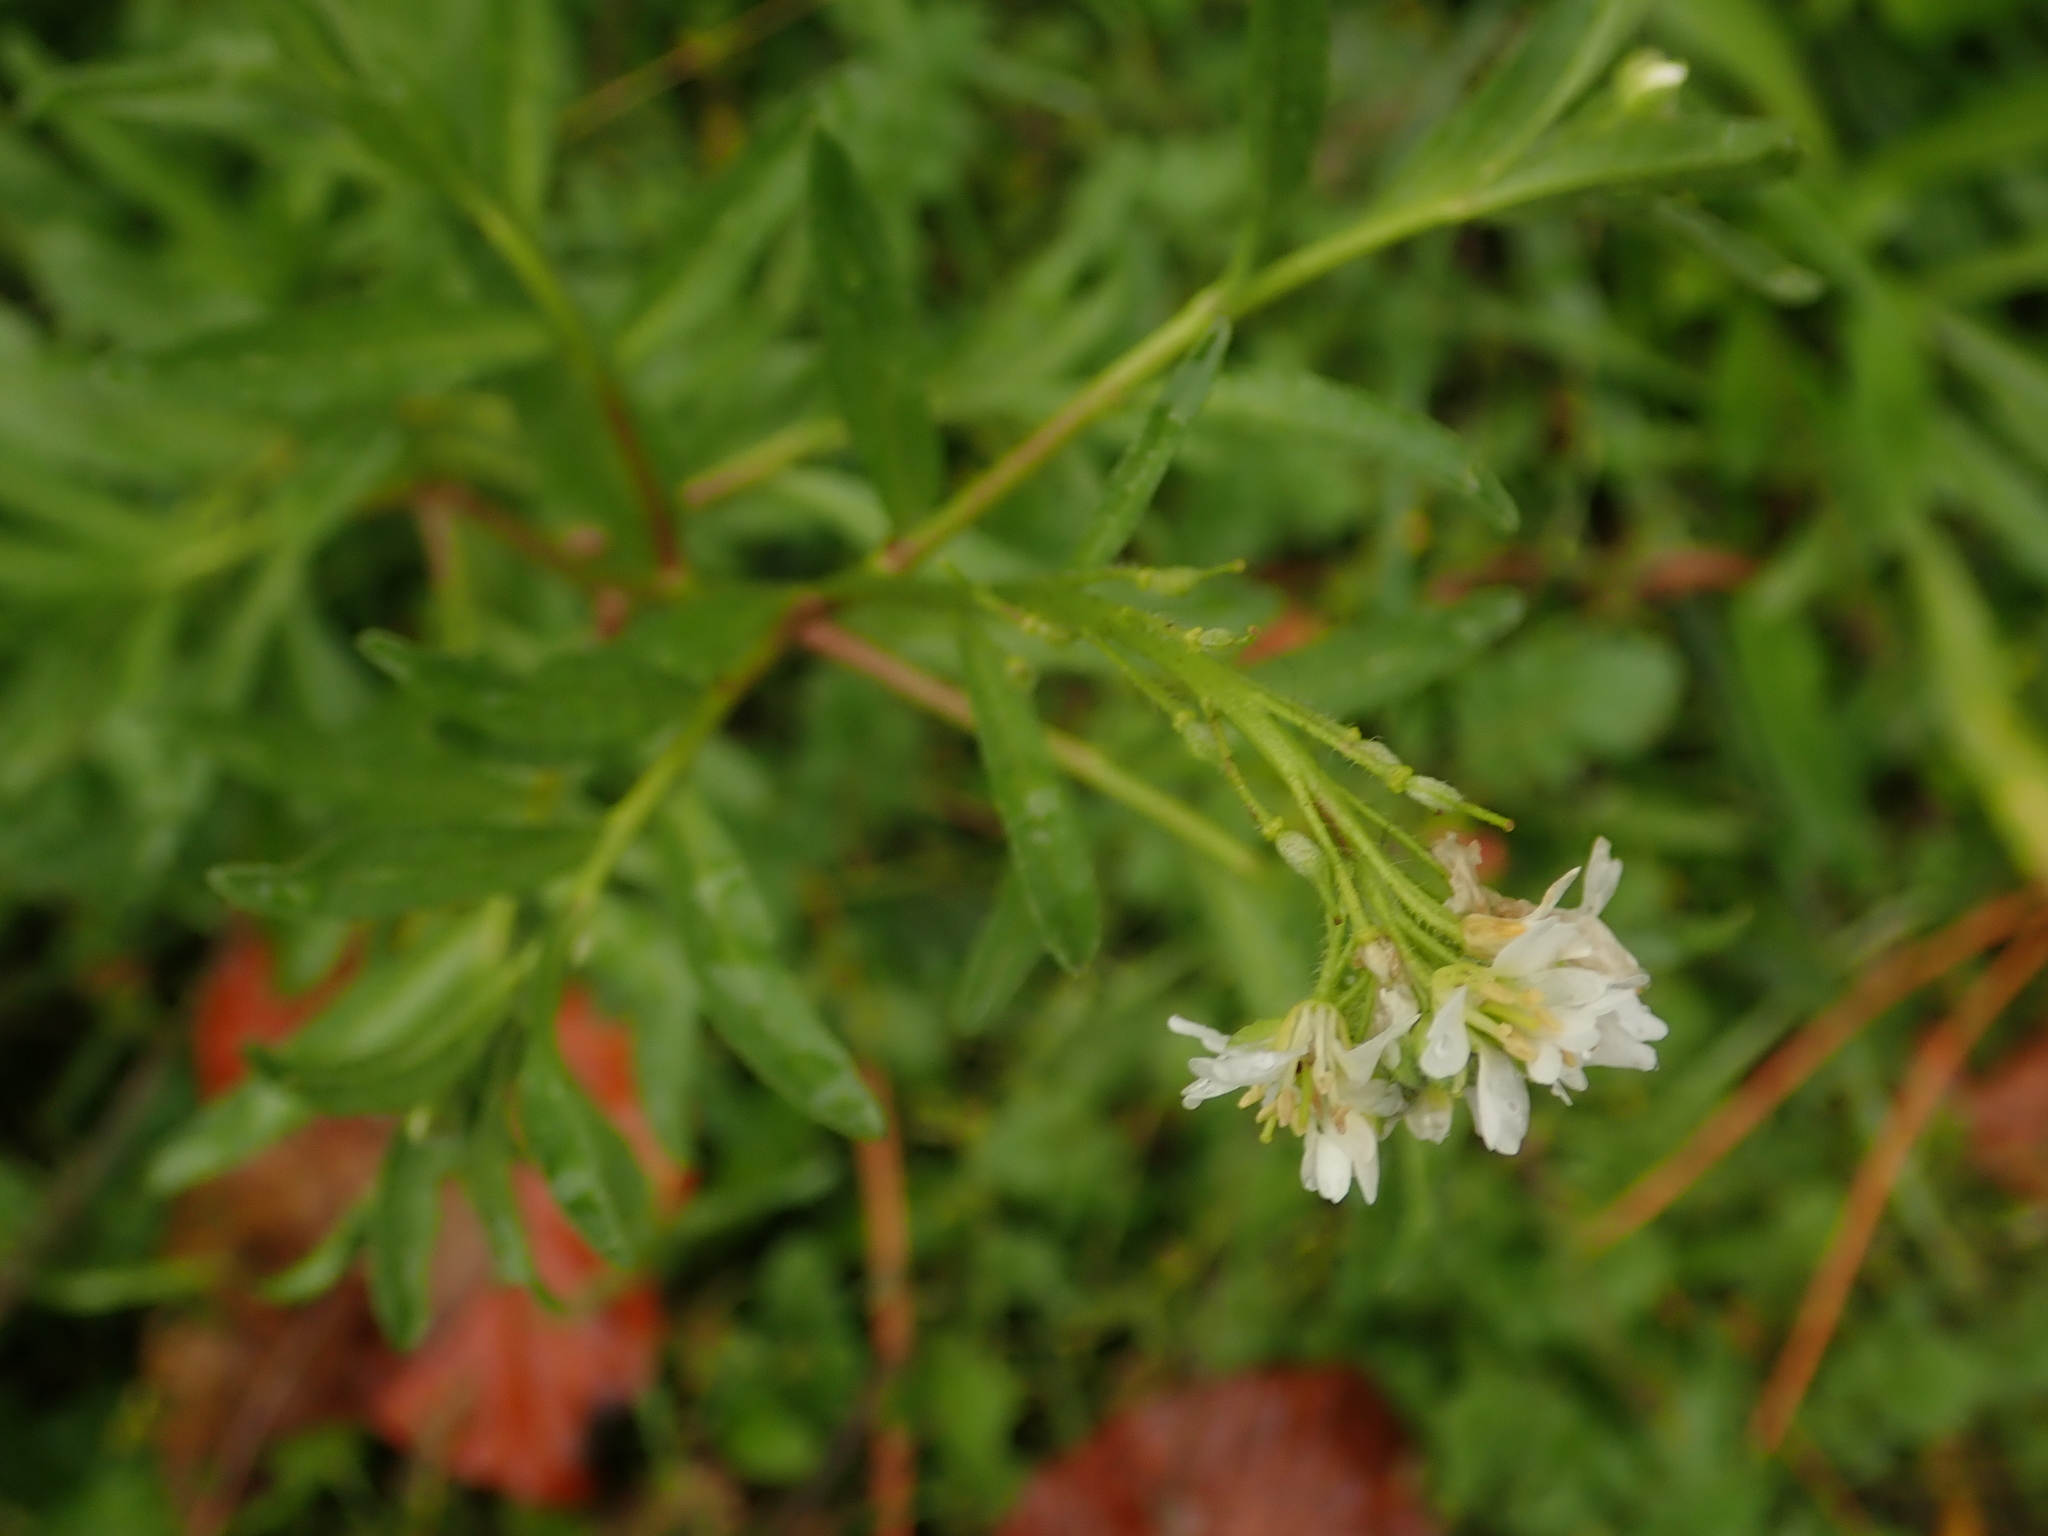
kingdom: Plantae
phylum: Tracheophyta
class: Magnoliopsida
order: Brassicales
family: Brassicaceae
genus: Berteroa
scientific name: Berteroa incana
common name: Hoary alison
